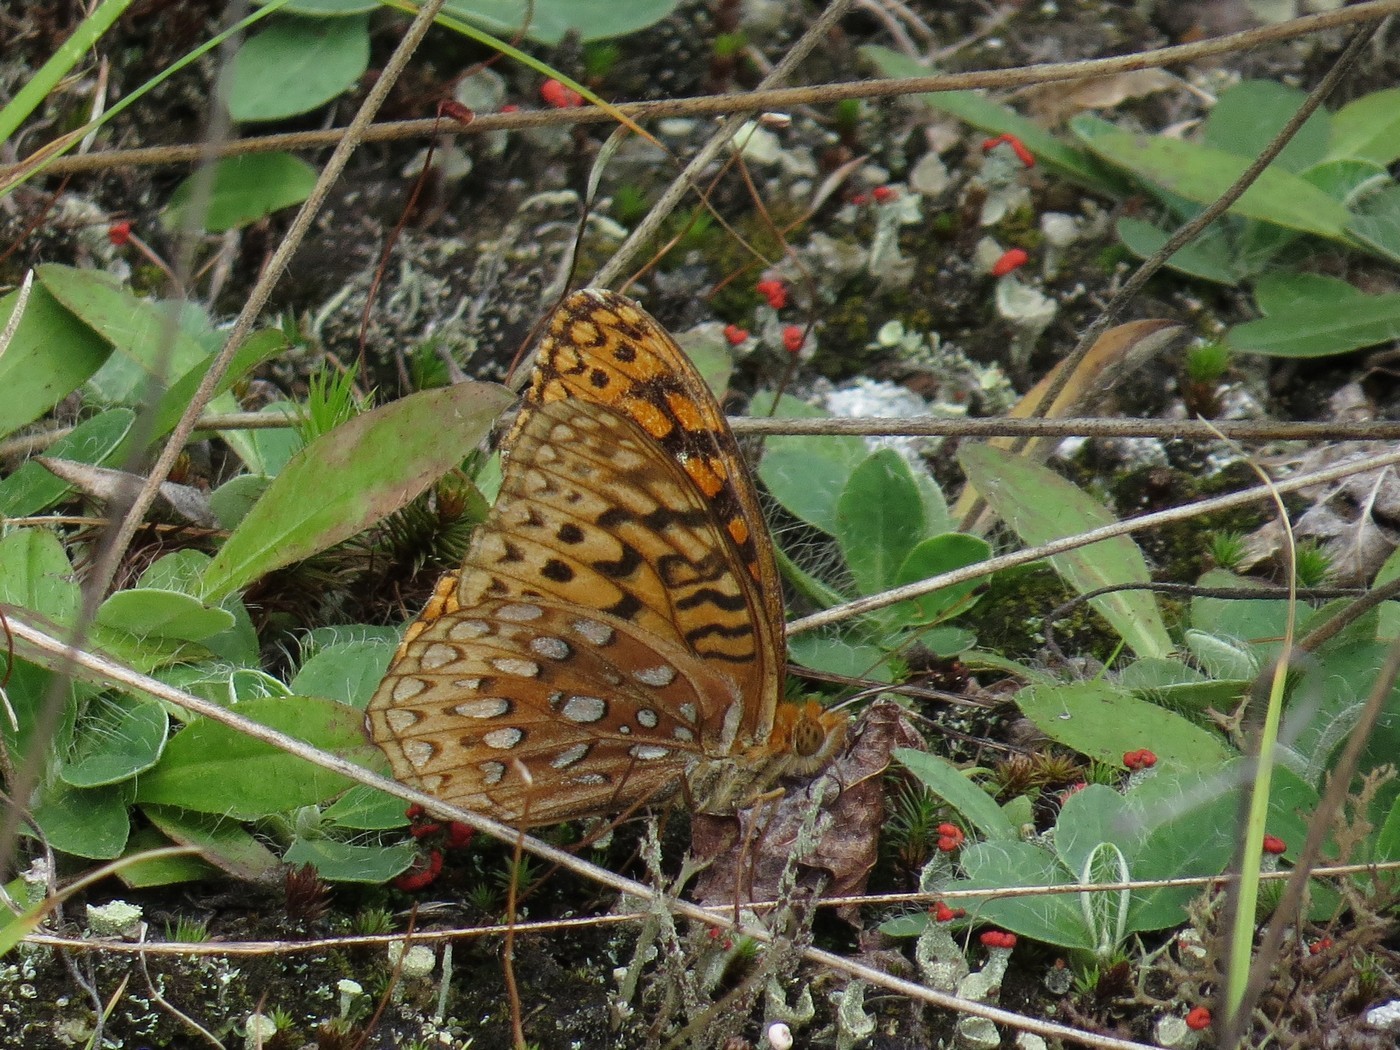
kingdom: Animalia
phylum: Arthropoda
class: Insecta
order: Lepidoptera
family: Nymphalidae
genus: Speyeria
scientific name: Speyeria cybele
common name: Great spangled fritillary
